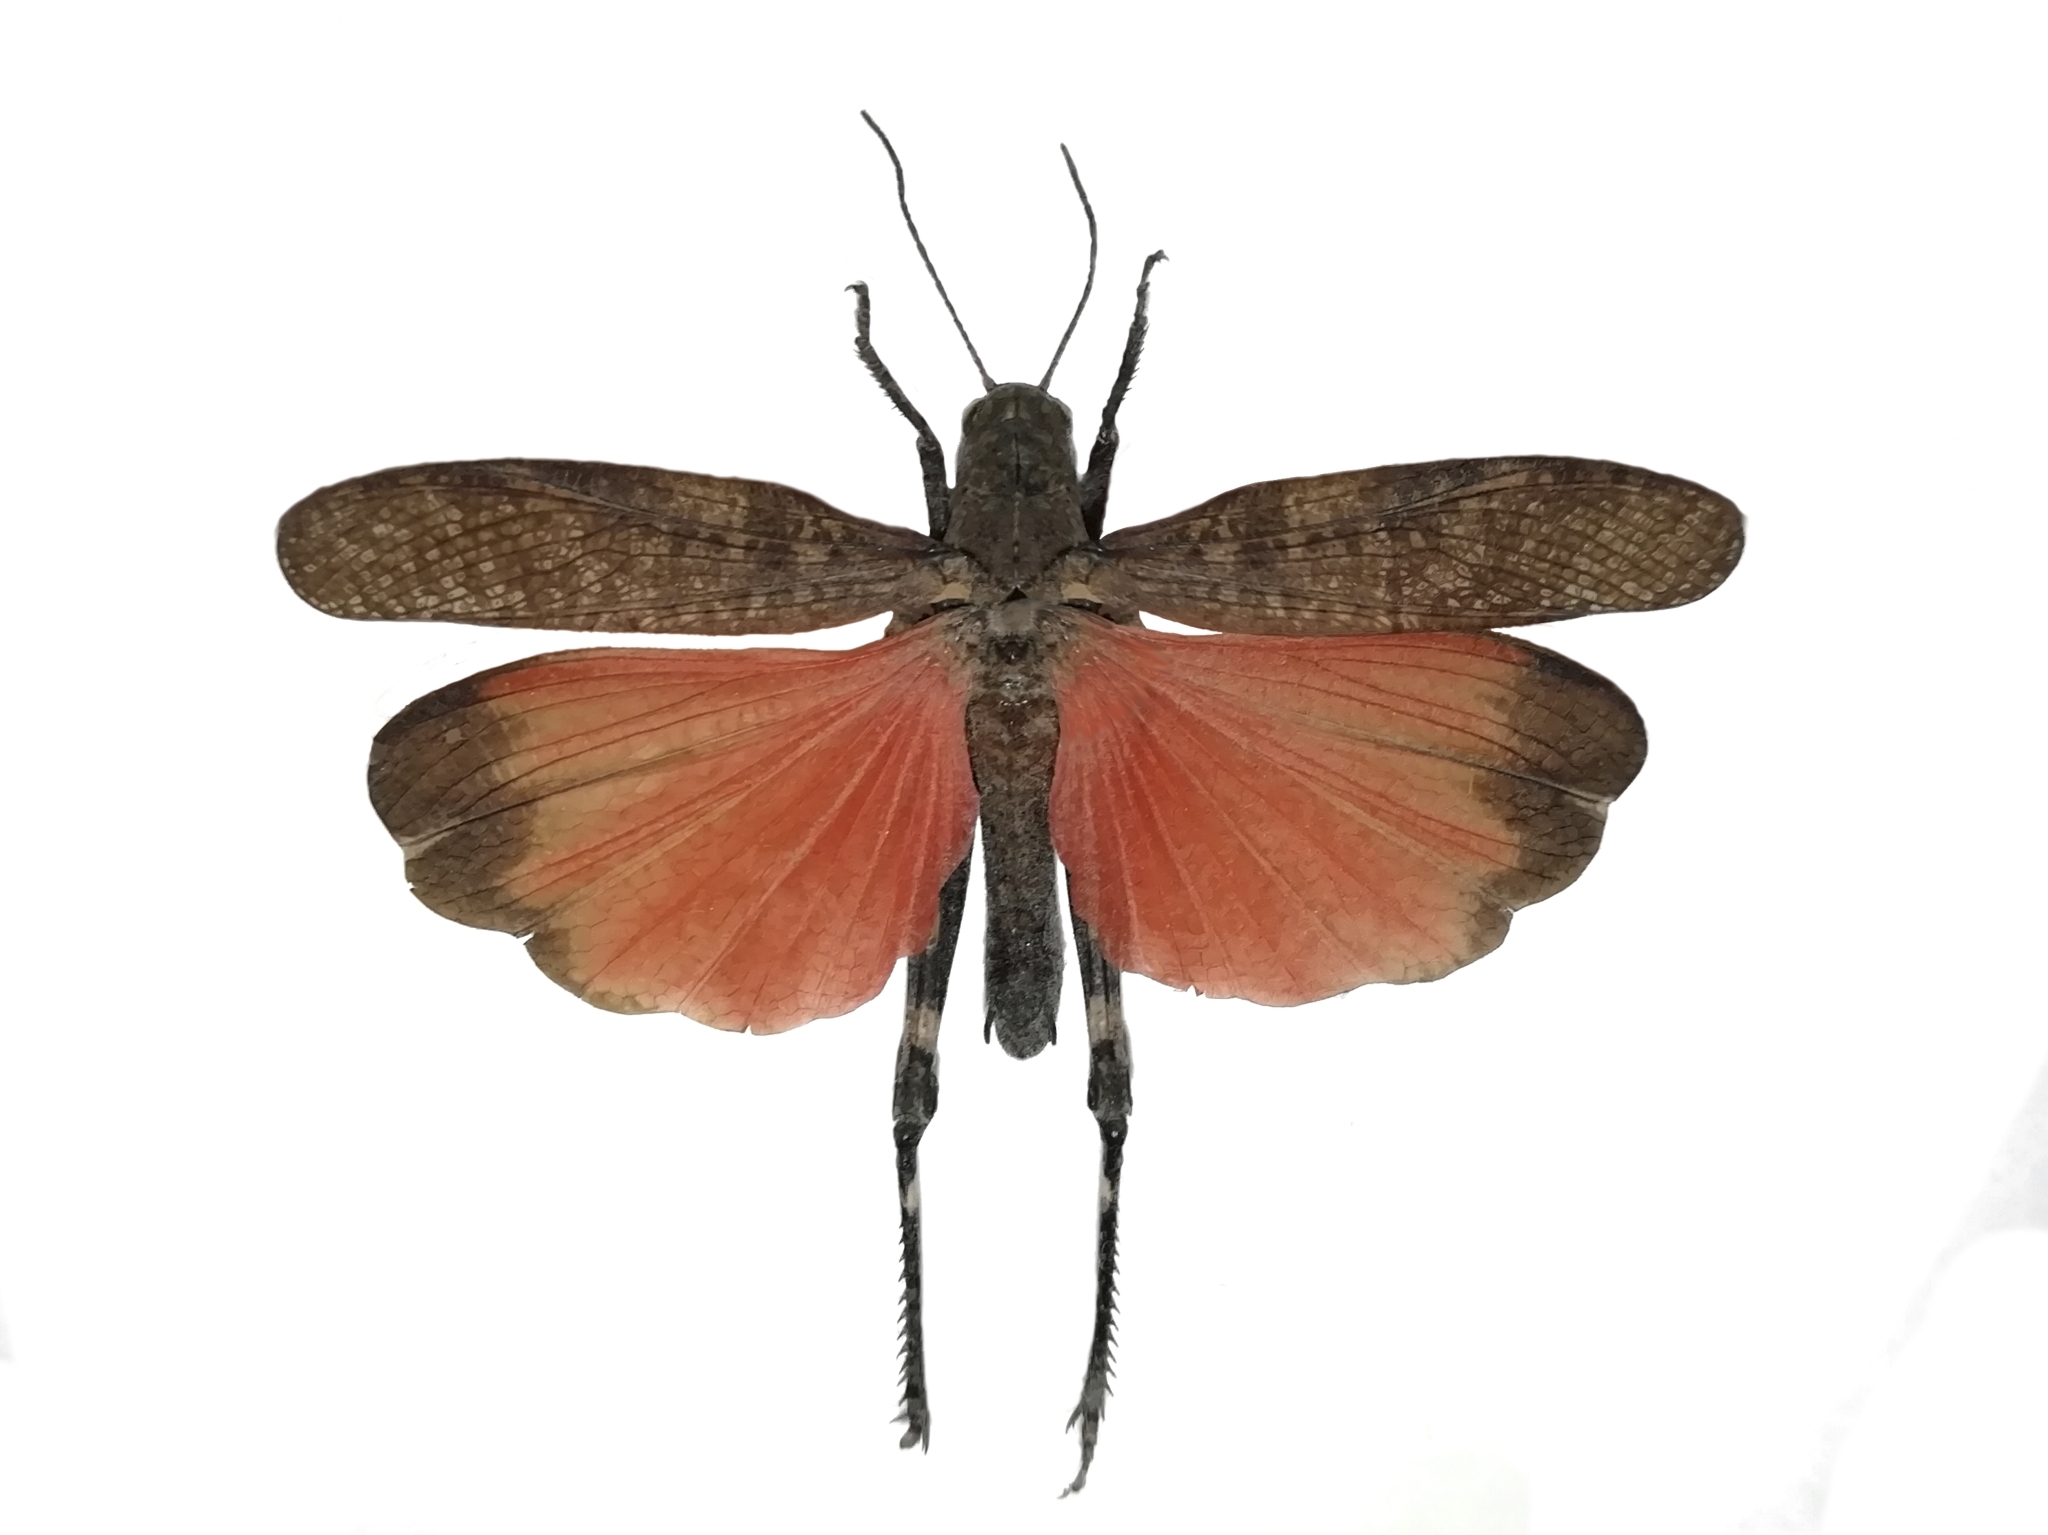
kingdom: Animalia
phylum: Arthropoda
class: Insecta
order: Orthoptera
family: Acrididae
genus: Psophus
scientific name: Psophus stridulus
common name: Rattle grasshopper
